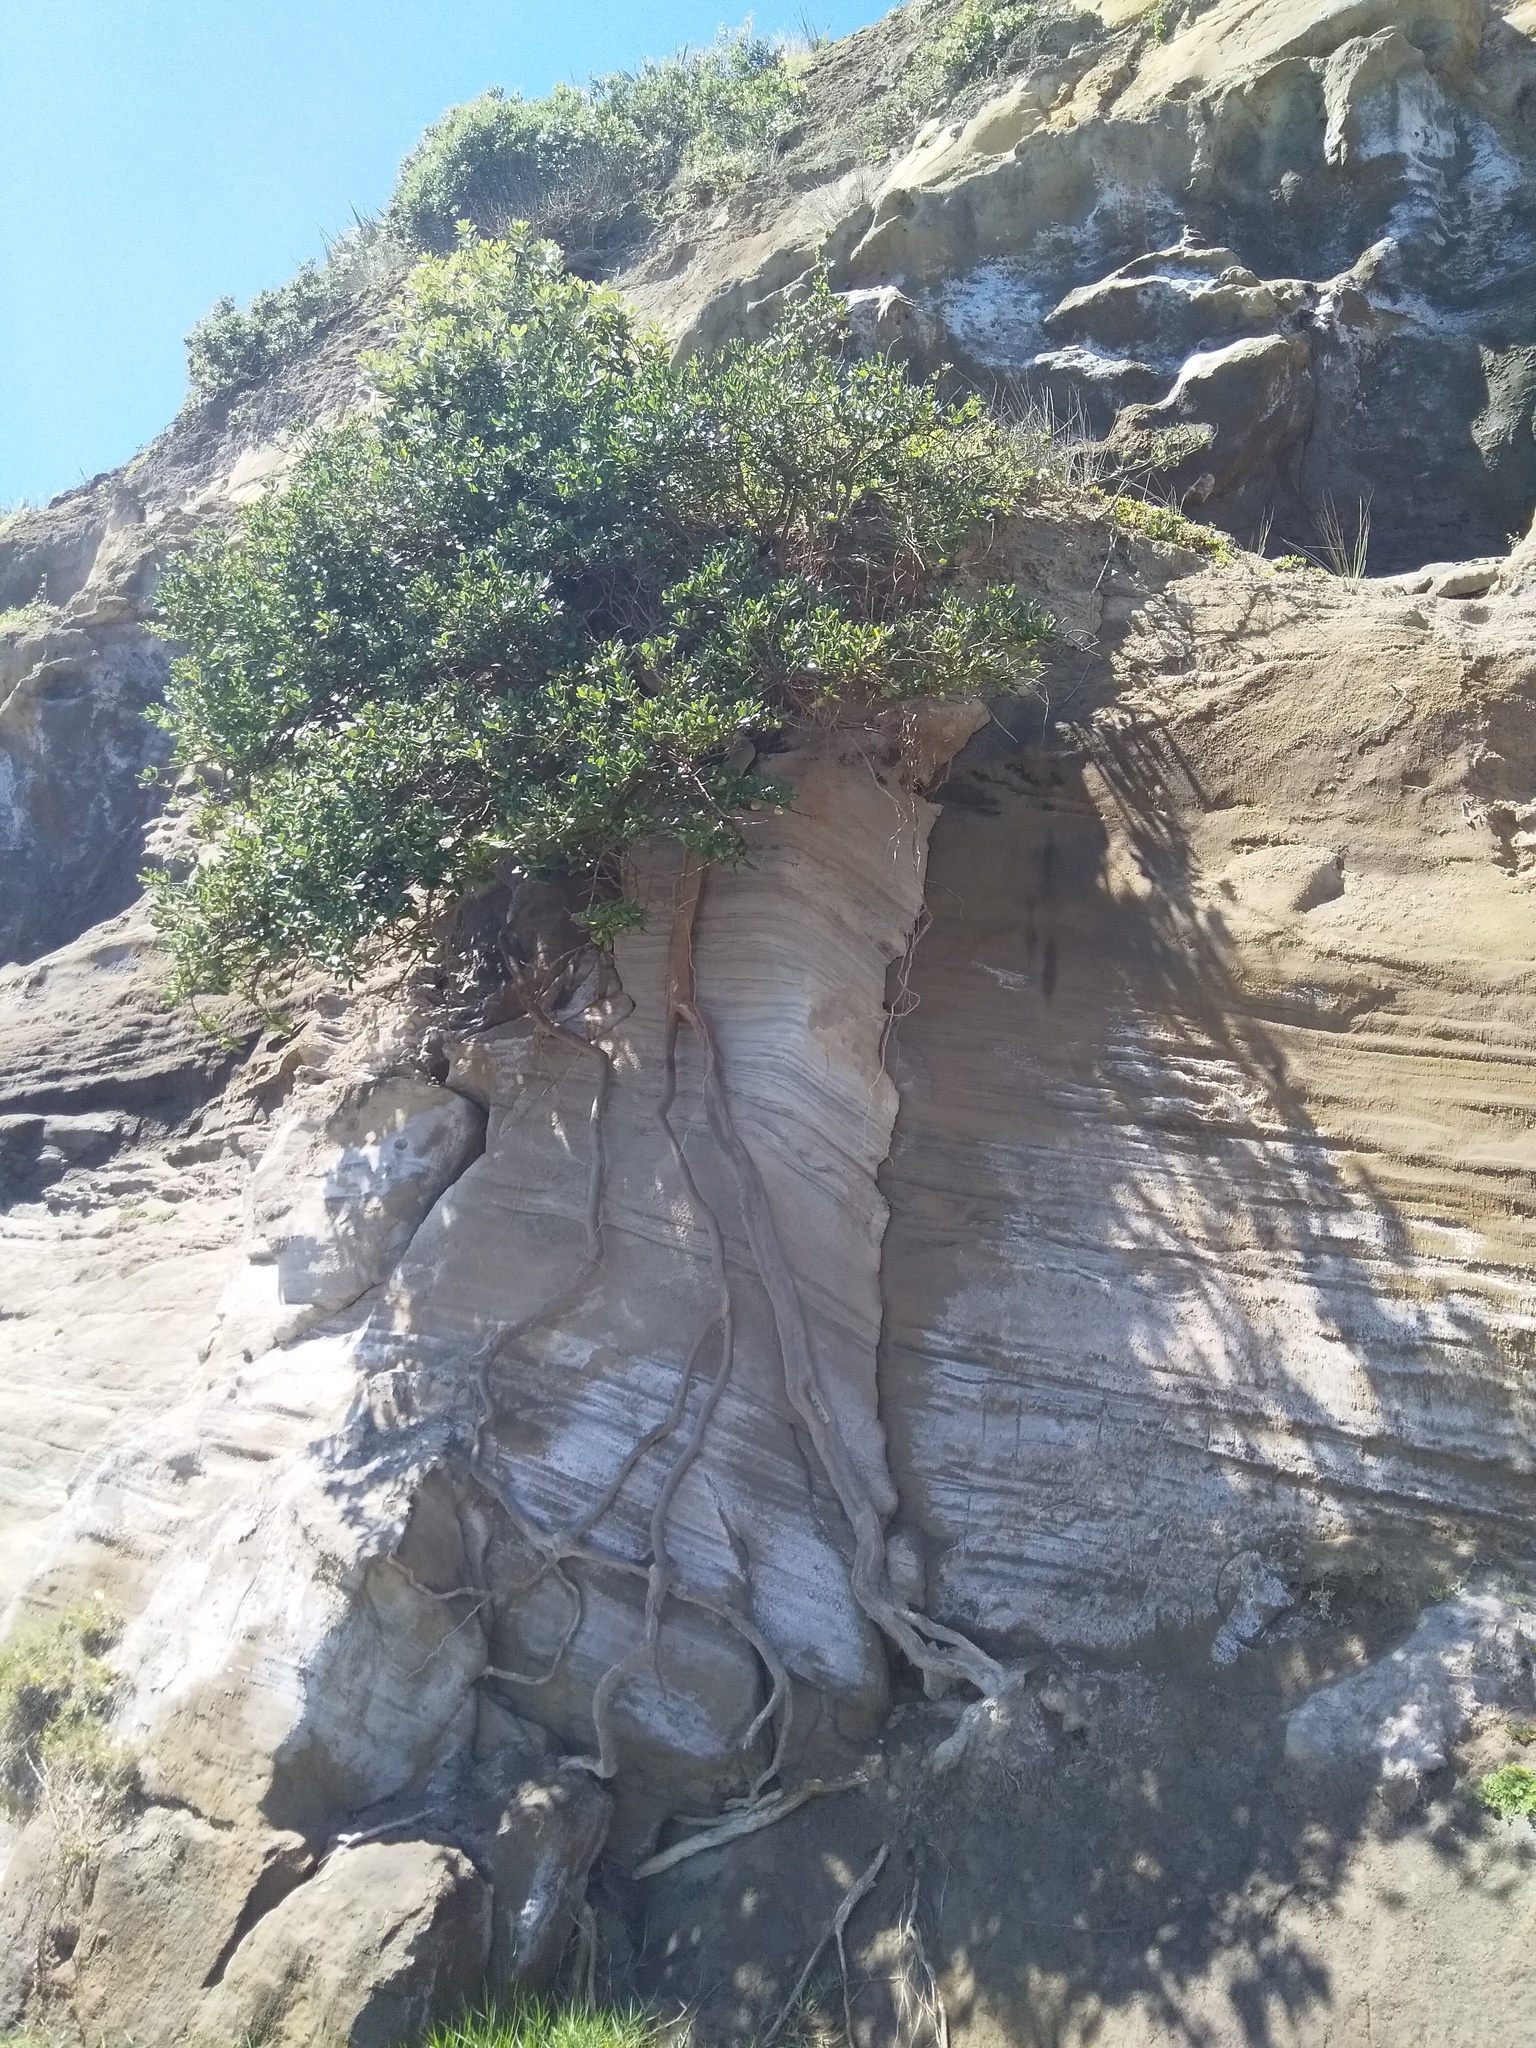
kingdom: Plantae
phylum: Tracheophyta
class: Magnoliopsida
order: Gentianales
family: Rubiaceae
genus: Coprosma
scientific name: Coprosma repens
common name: Tree bedstraw
